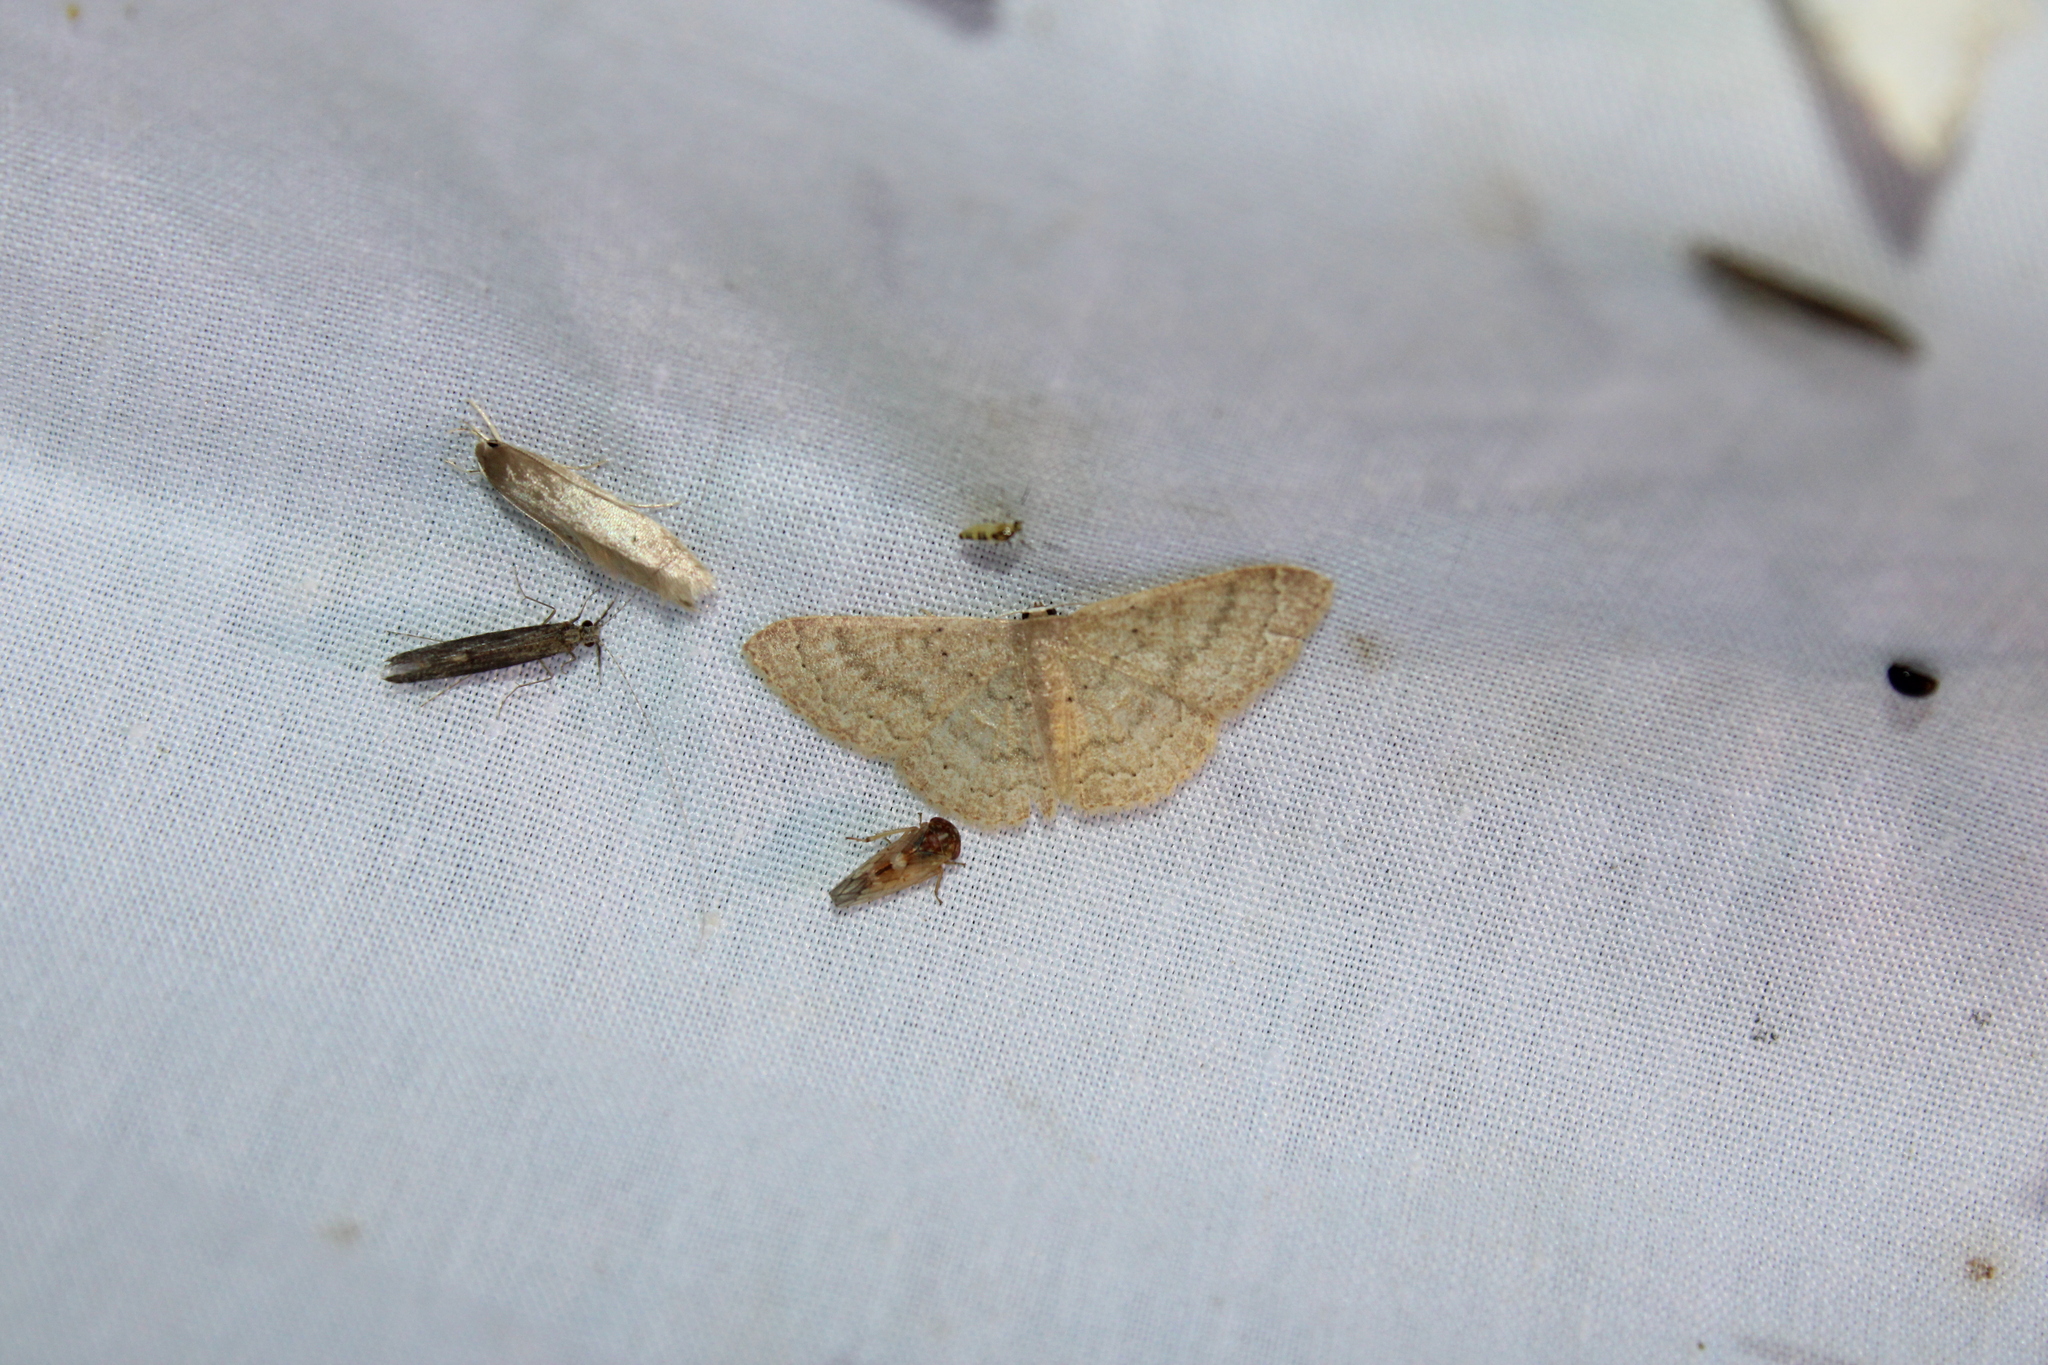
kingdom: Animalia
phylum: Arthropoda
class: Insecta
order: Lepidoptera
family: Geometridae
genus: Pleuroprucha
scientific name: Pleuroprucha insulsaria
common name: Common tan wave
